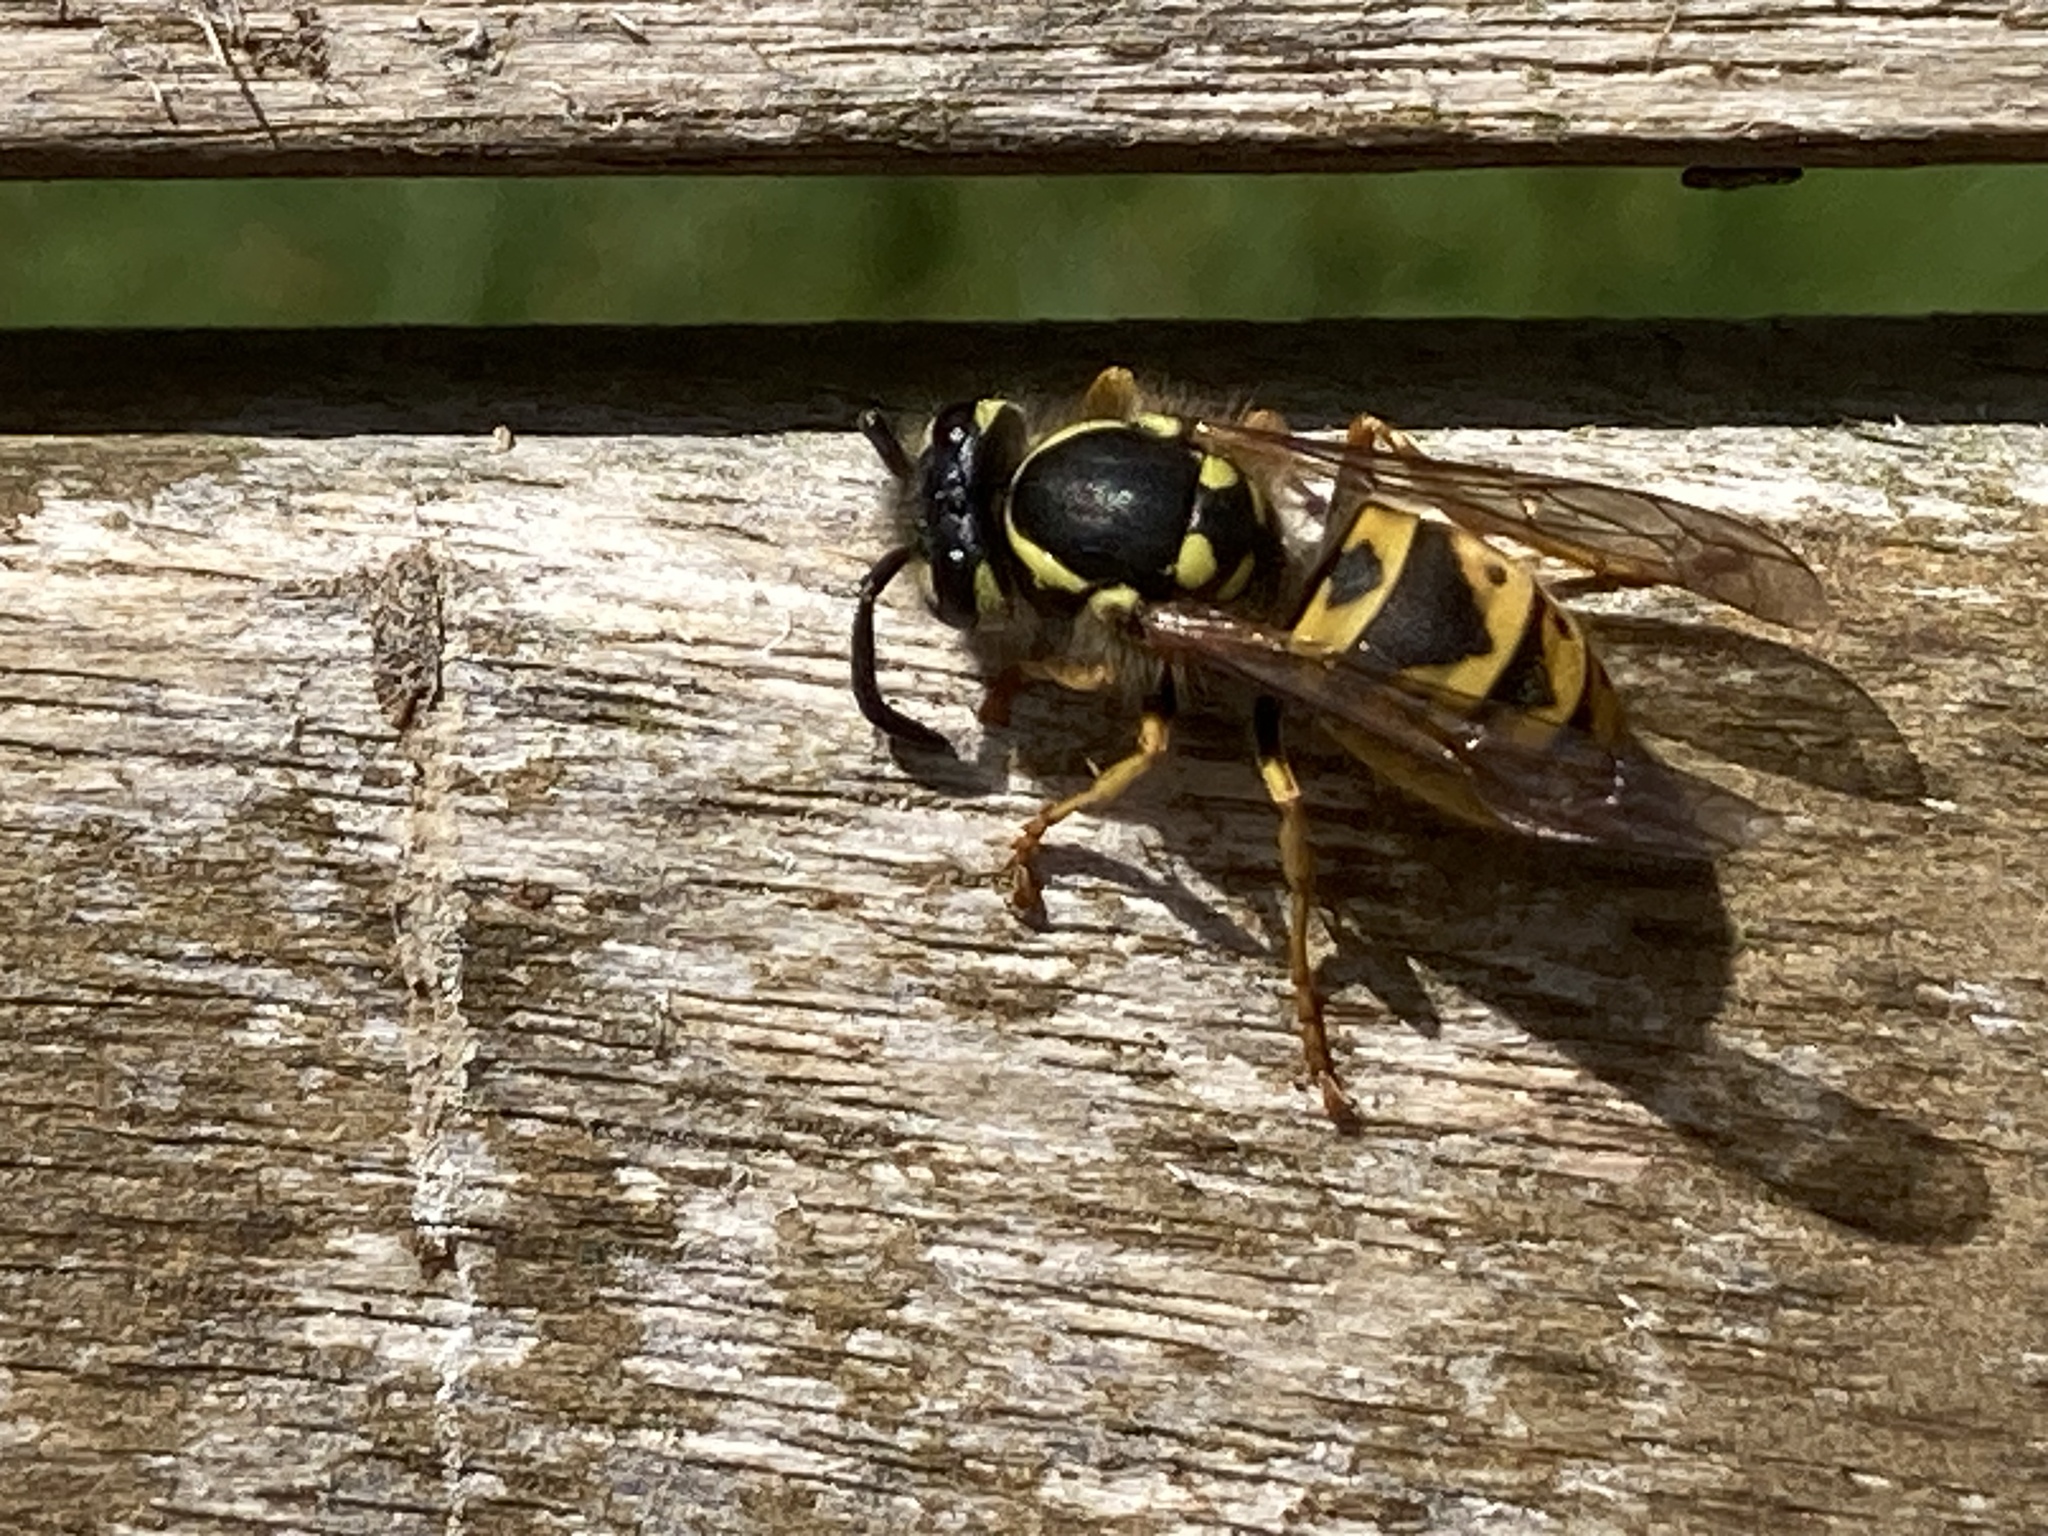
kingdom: Animalia
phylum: Arthropoda
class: Insecta
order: Hymenoptera
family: Vespidae
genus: Vespula
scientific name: Vespula germanica
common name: German wasp
